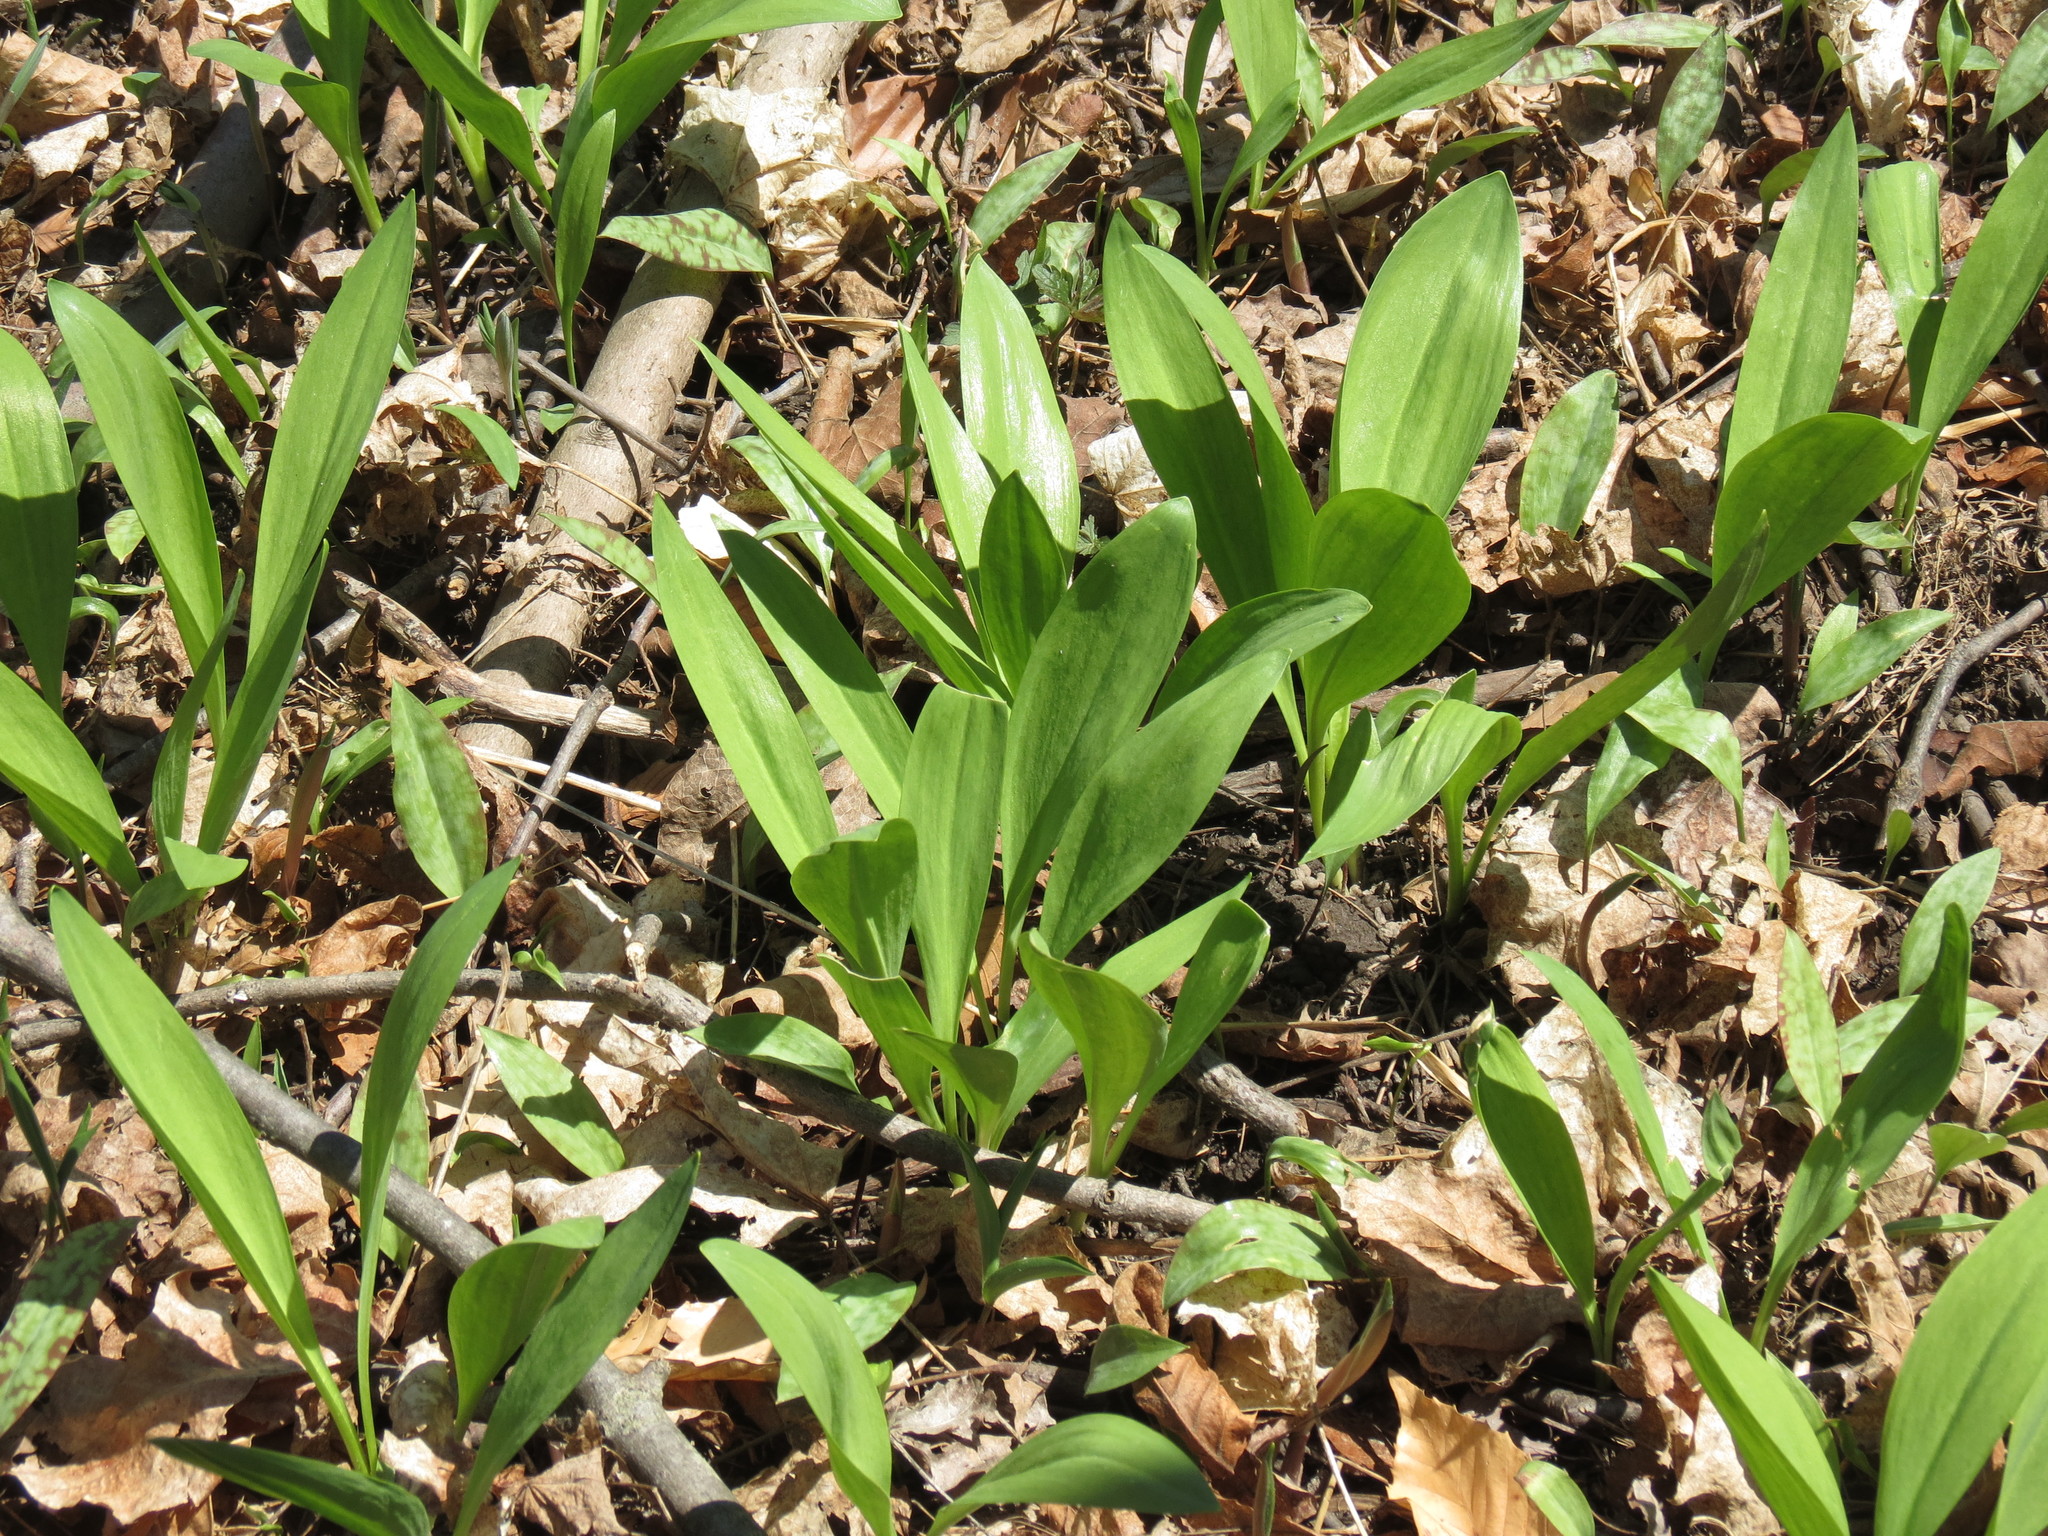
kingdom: Plantae
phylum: Tracheophyta
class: Liliopsida
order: Asparagales
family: Amaryllidaceae
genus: Allium
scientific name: Allium tricoccum
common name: Ramp
